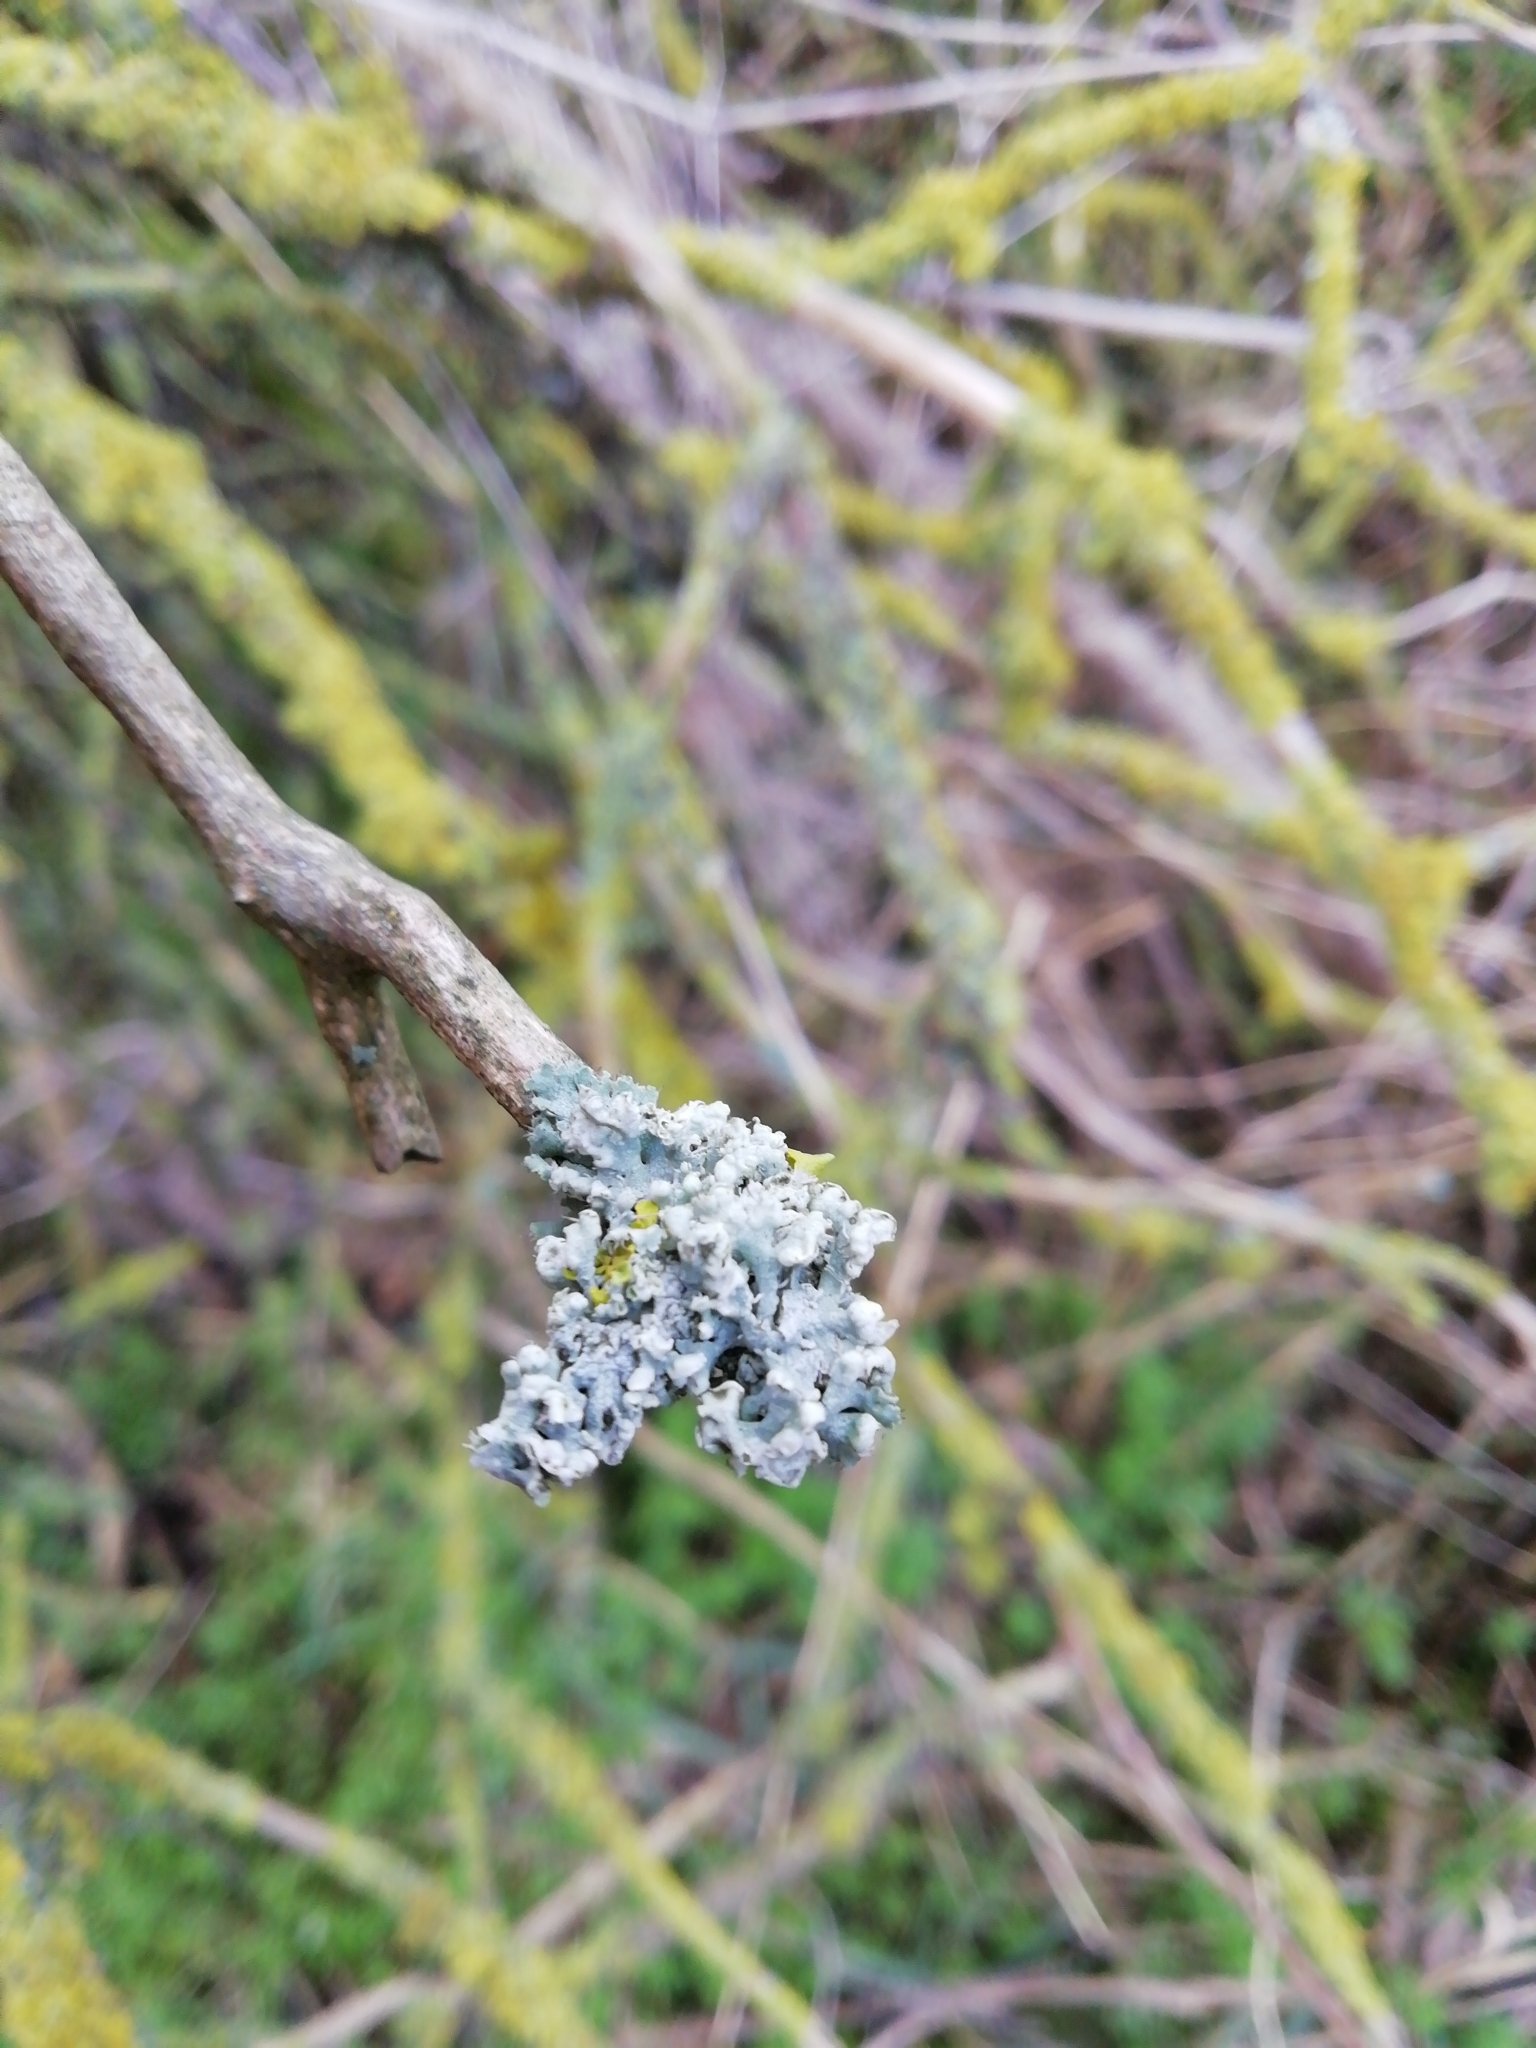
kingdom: Fungi
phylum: Ascomycota
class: Lecanoromycetes
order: Caliciales
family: Physciaceae
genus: Physcia
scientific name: Physcia adscendens
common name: Hooded rosette lichen
